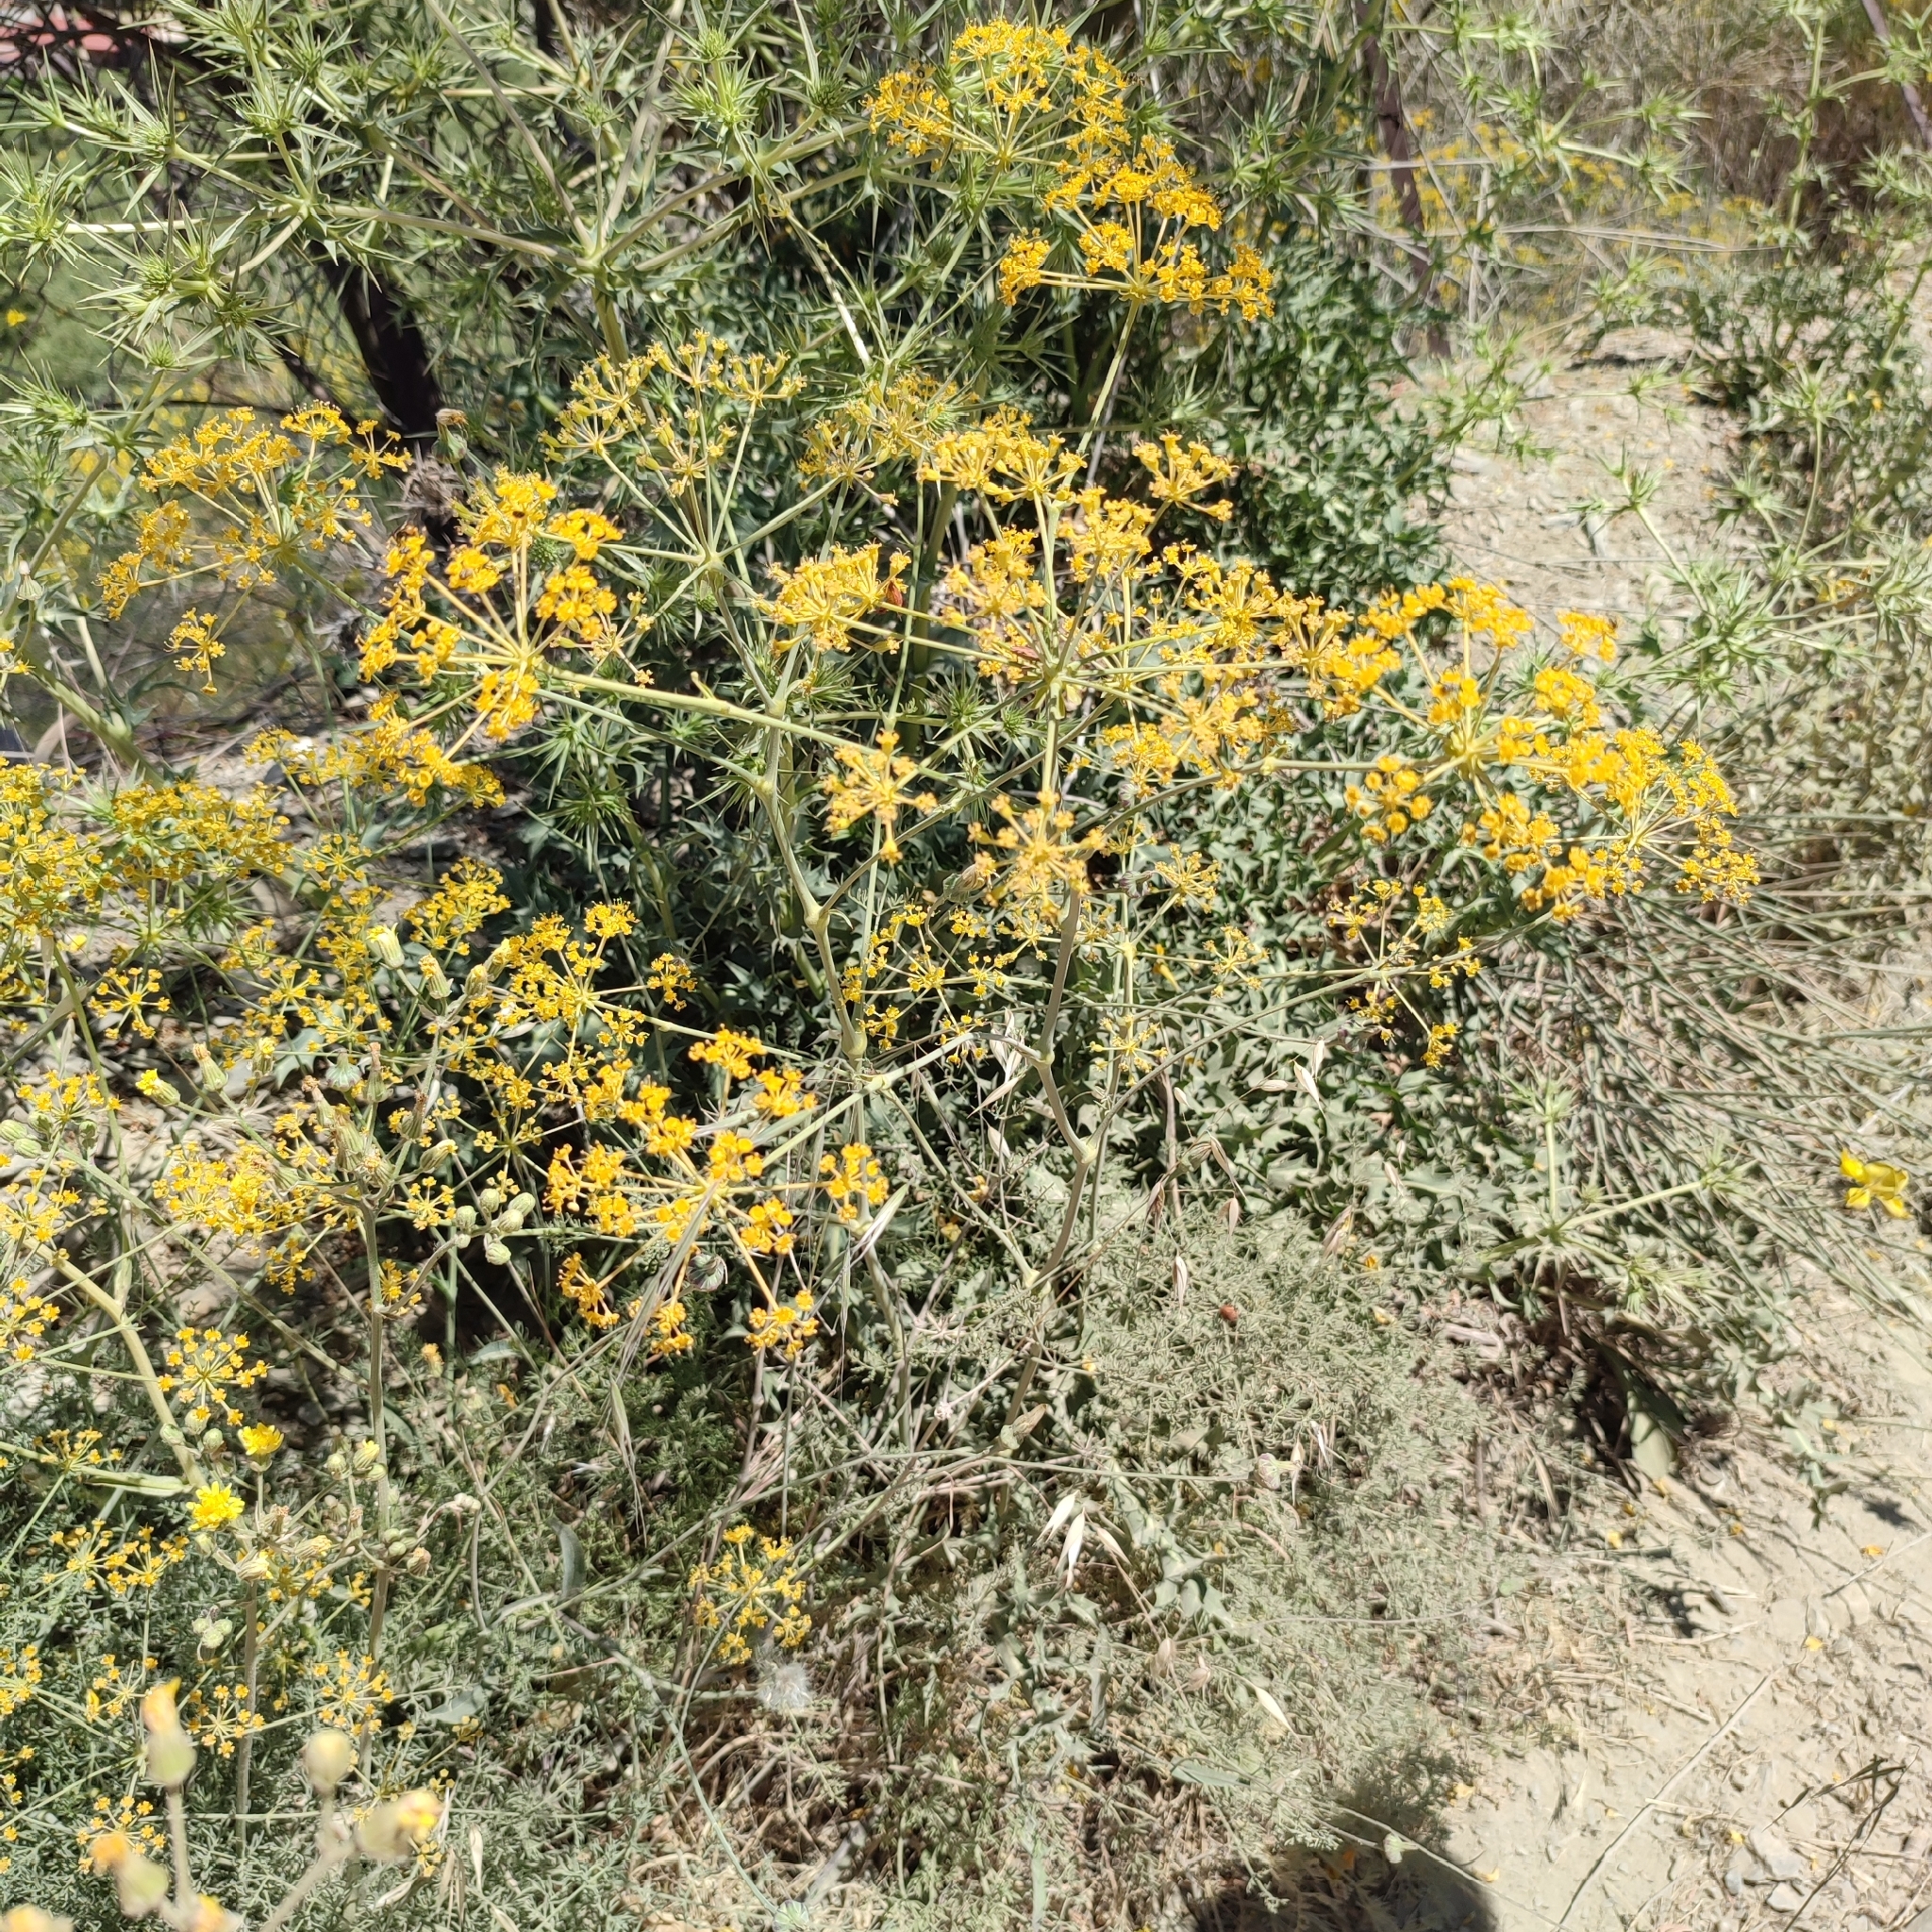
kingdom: Plantae
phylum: Tracheophyta
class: Magnoliopsida
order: Apiales
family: Apiaceae
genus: Ferulago
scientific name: Ferulago nodosa
